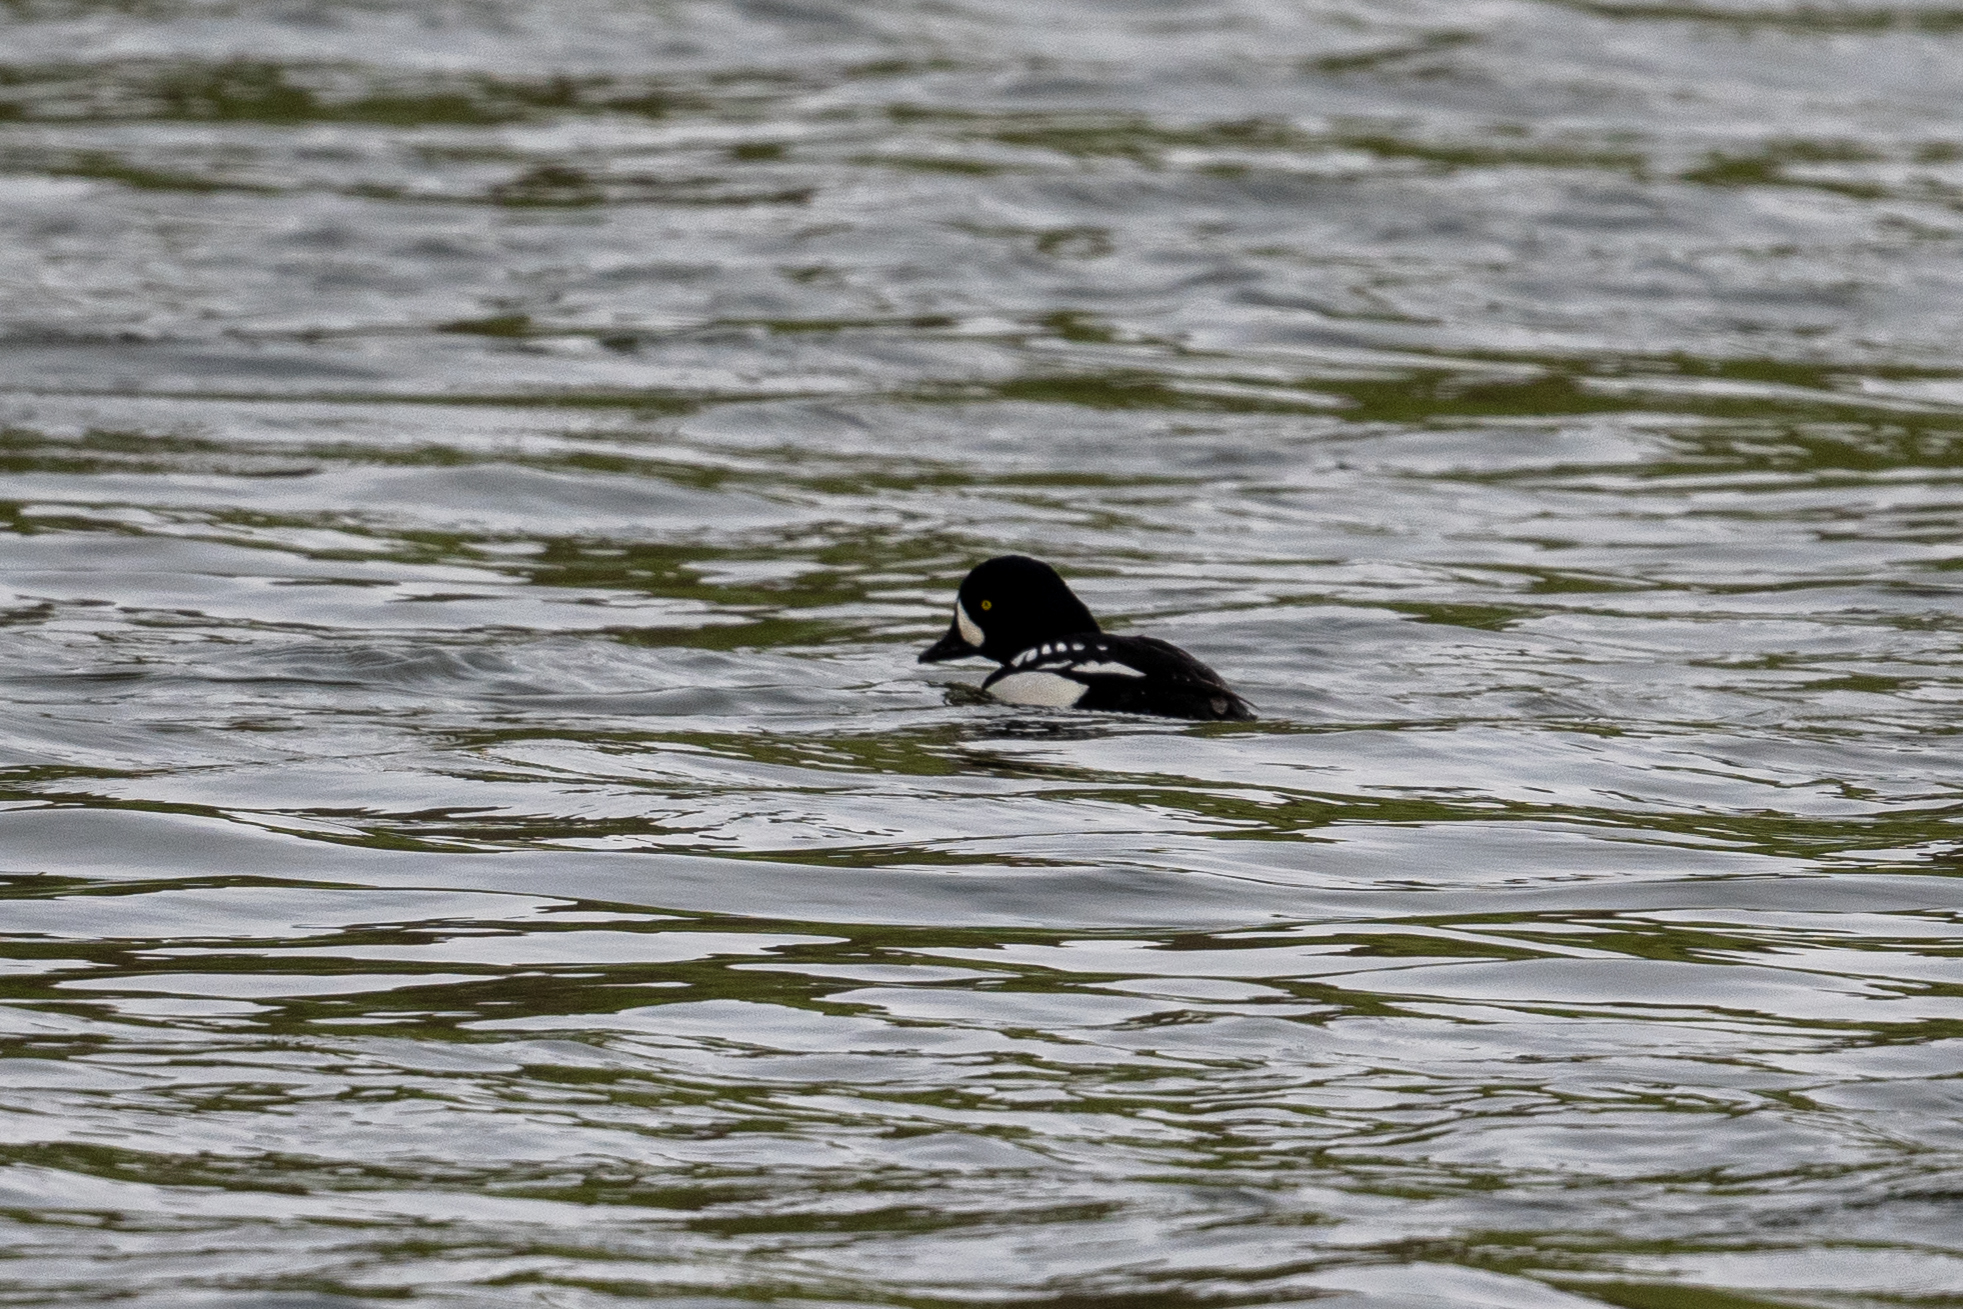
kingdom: Animalia
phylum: Chordata
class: Aves
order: Anseriformes
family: Anatidae
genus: Bucephala
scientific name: Bucephala islandica
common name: Barrow's goldeneye
